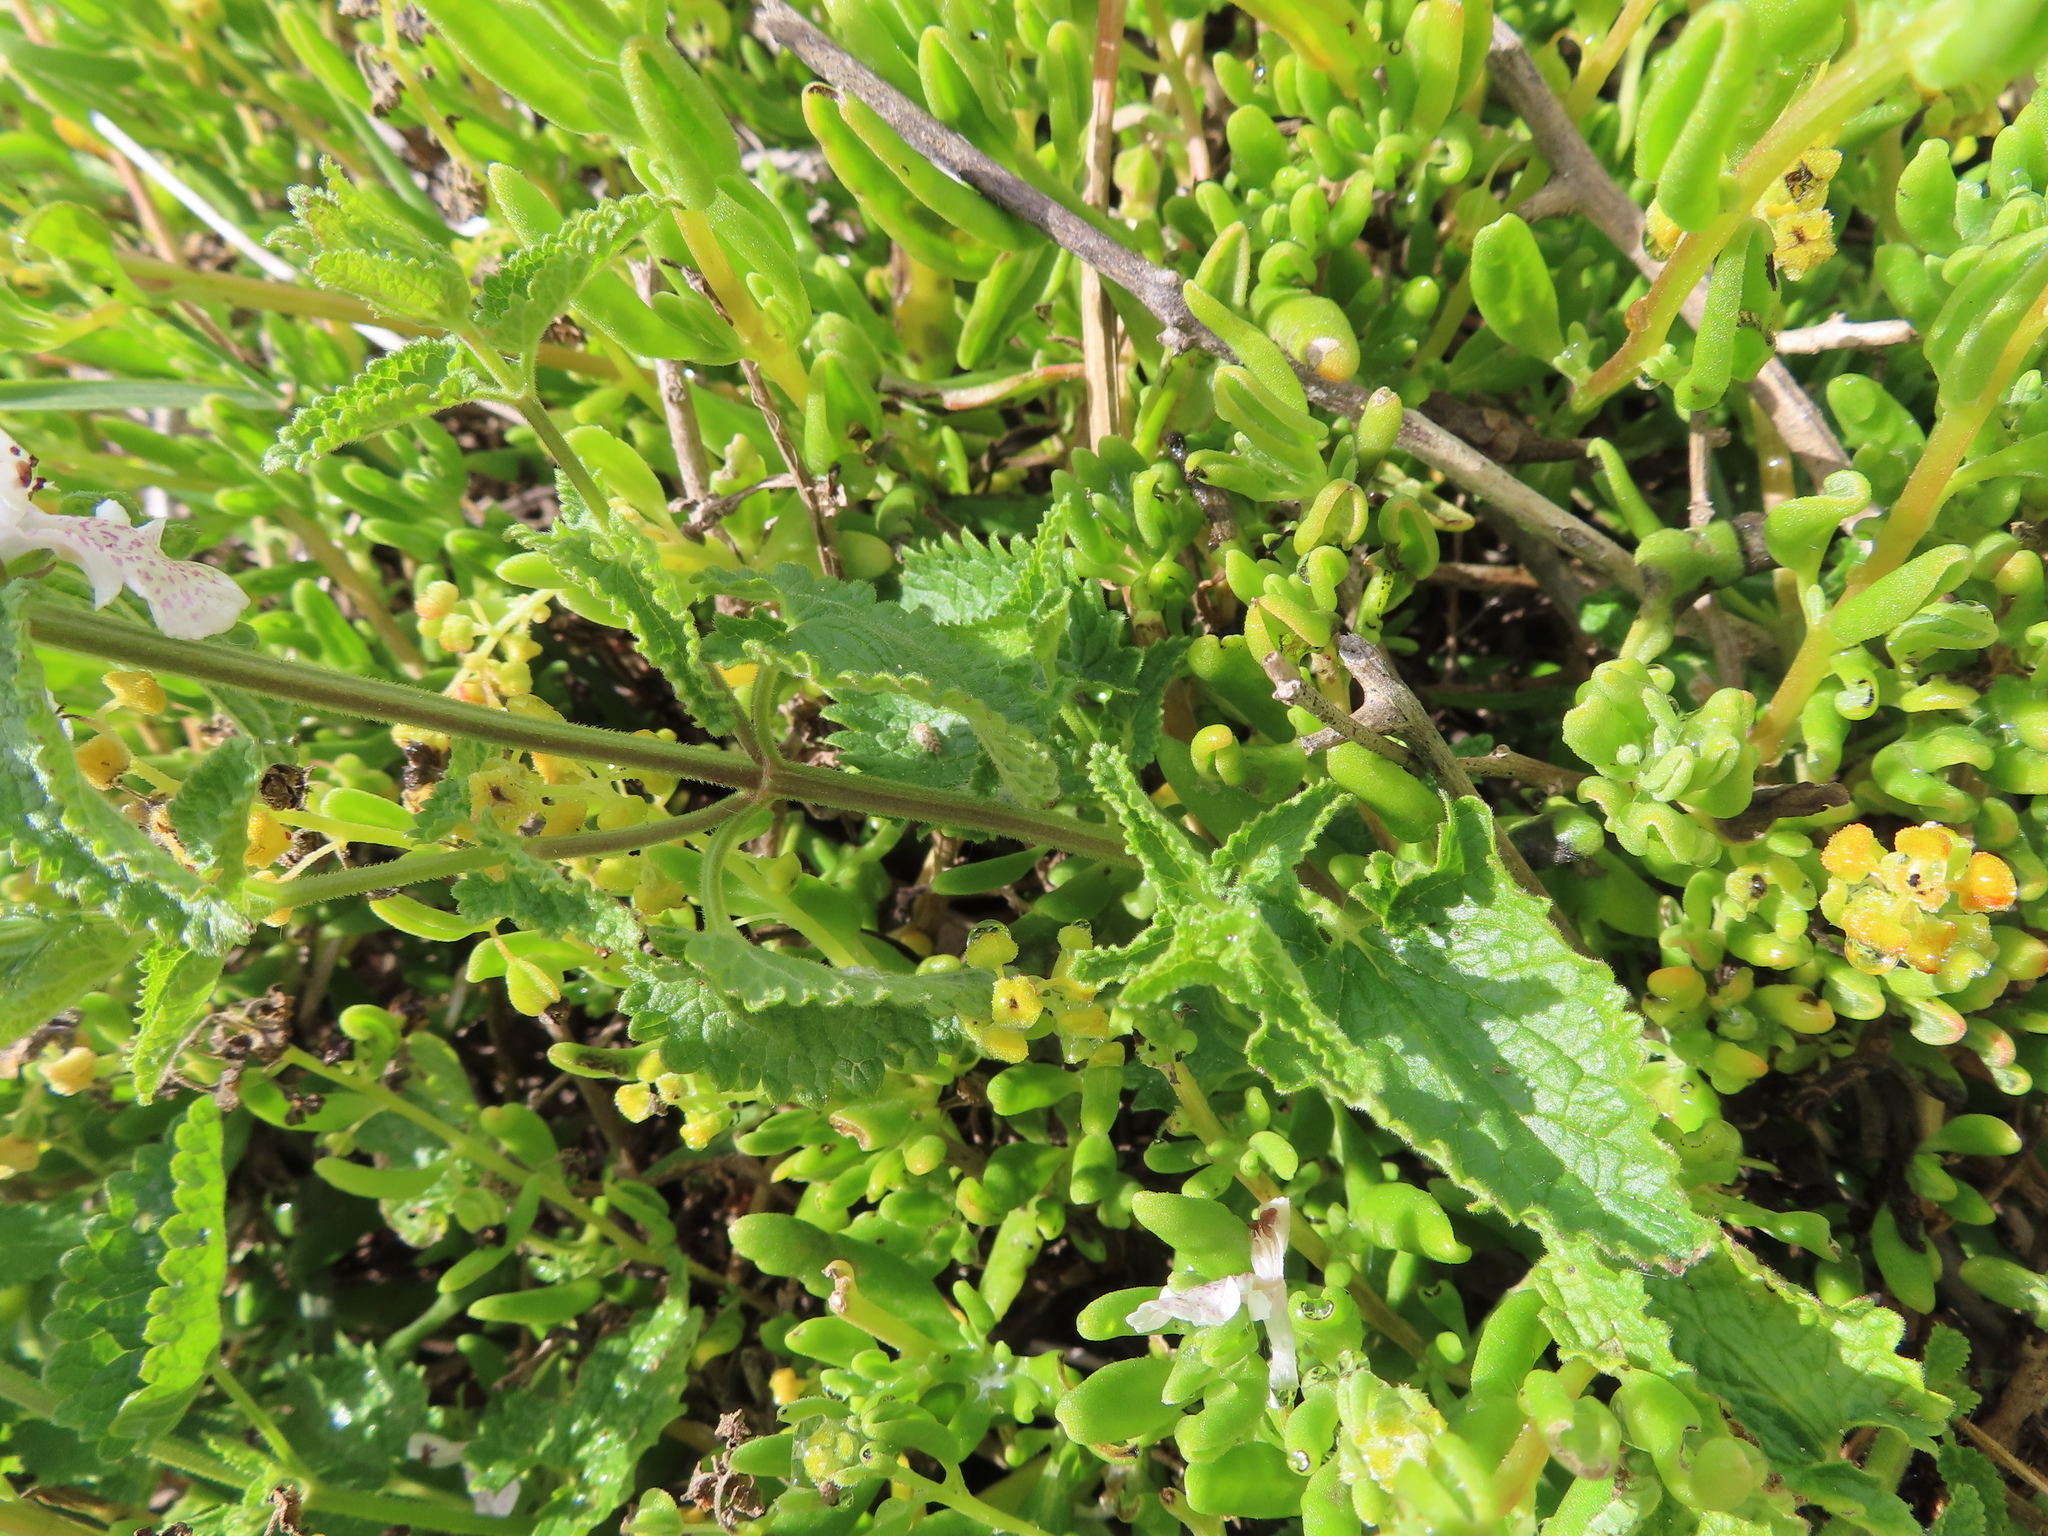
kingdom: Plantae
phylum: Tracheophyta
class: Magnoliopsida
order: Lamiales
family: Lamiaceae
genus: Stachys
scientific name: Stachys bolusii
